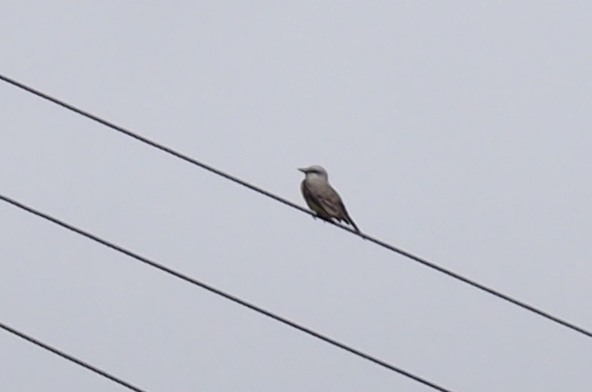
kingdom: Animalia
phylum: Chordata
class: Aves
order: Passeriformes
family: Tyrannidae
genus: Tyrannus
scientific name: Tyrannus melancholicus
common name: Tropical kingbird
